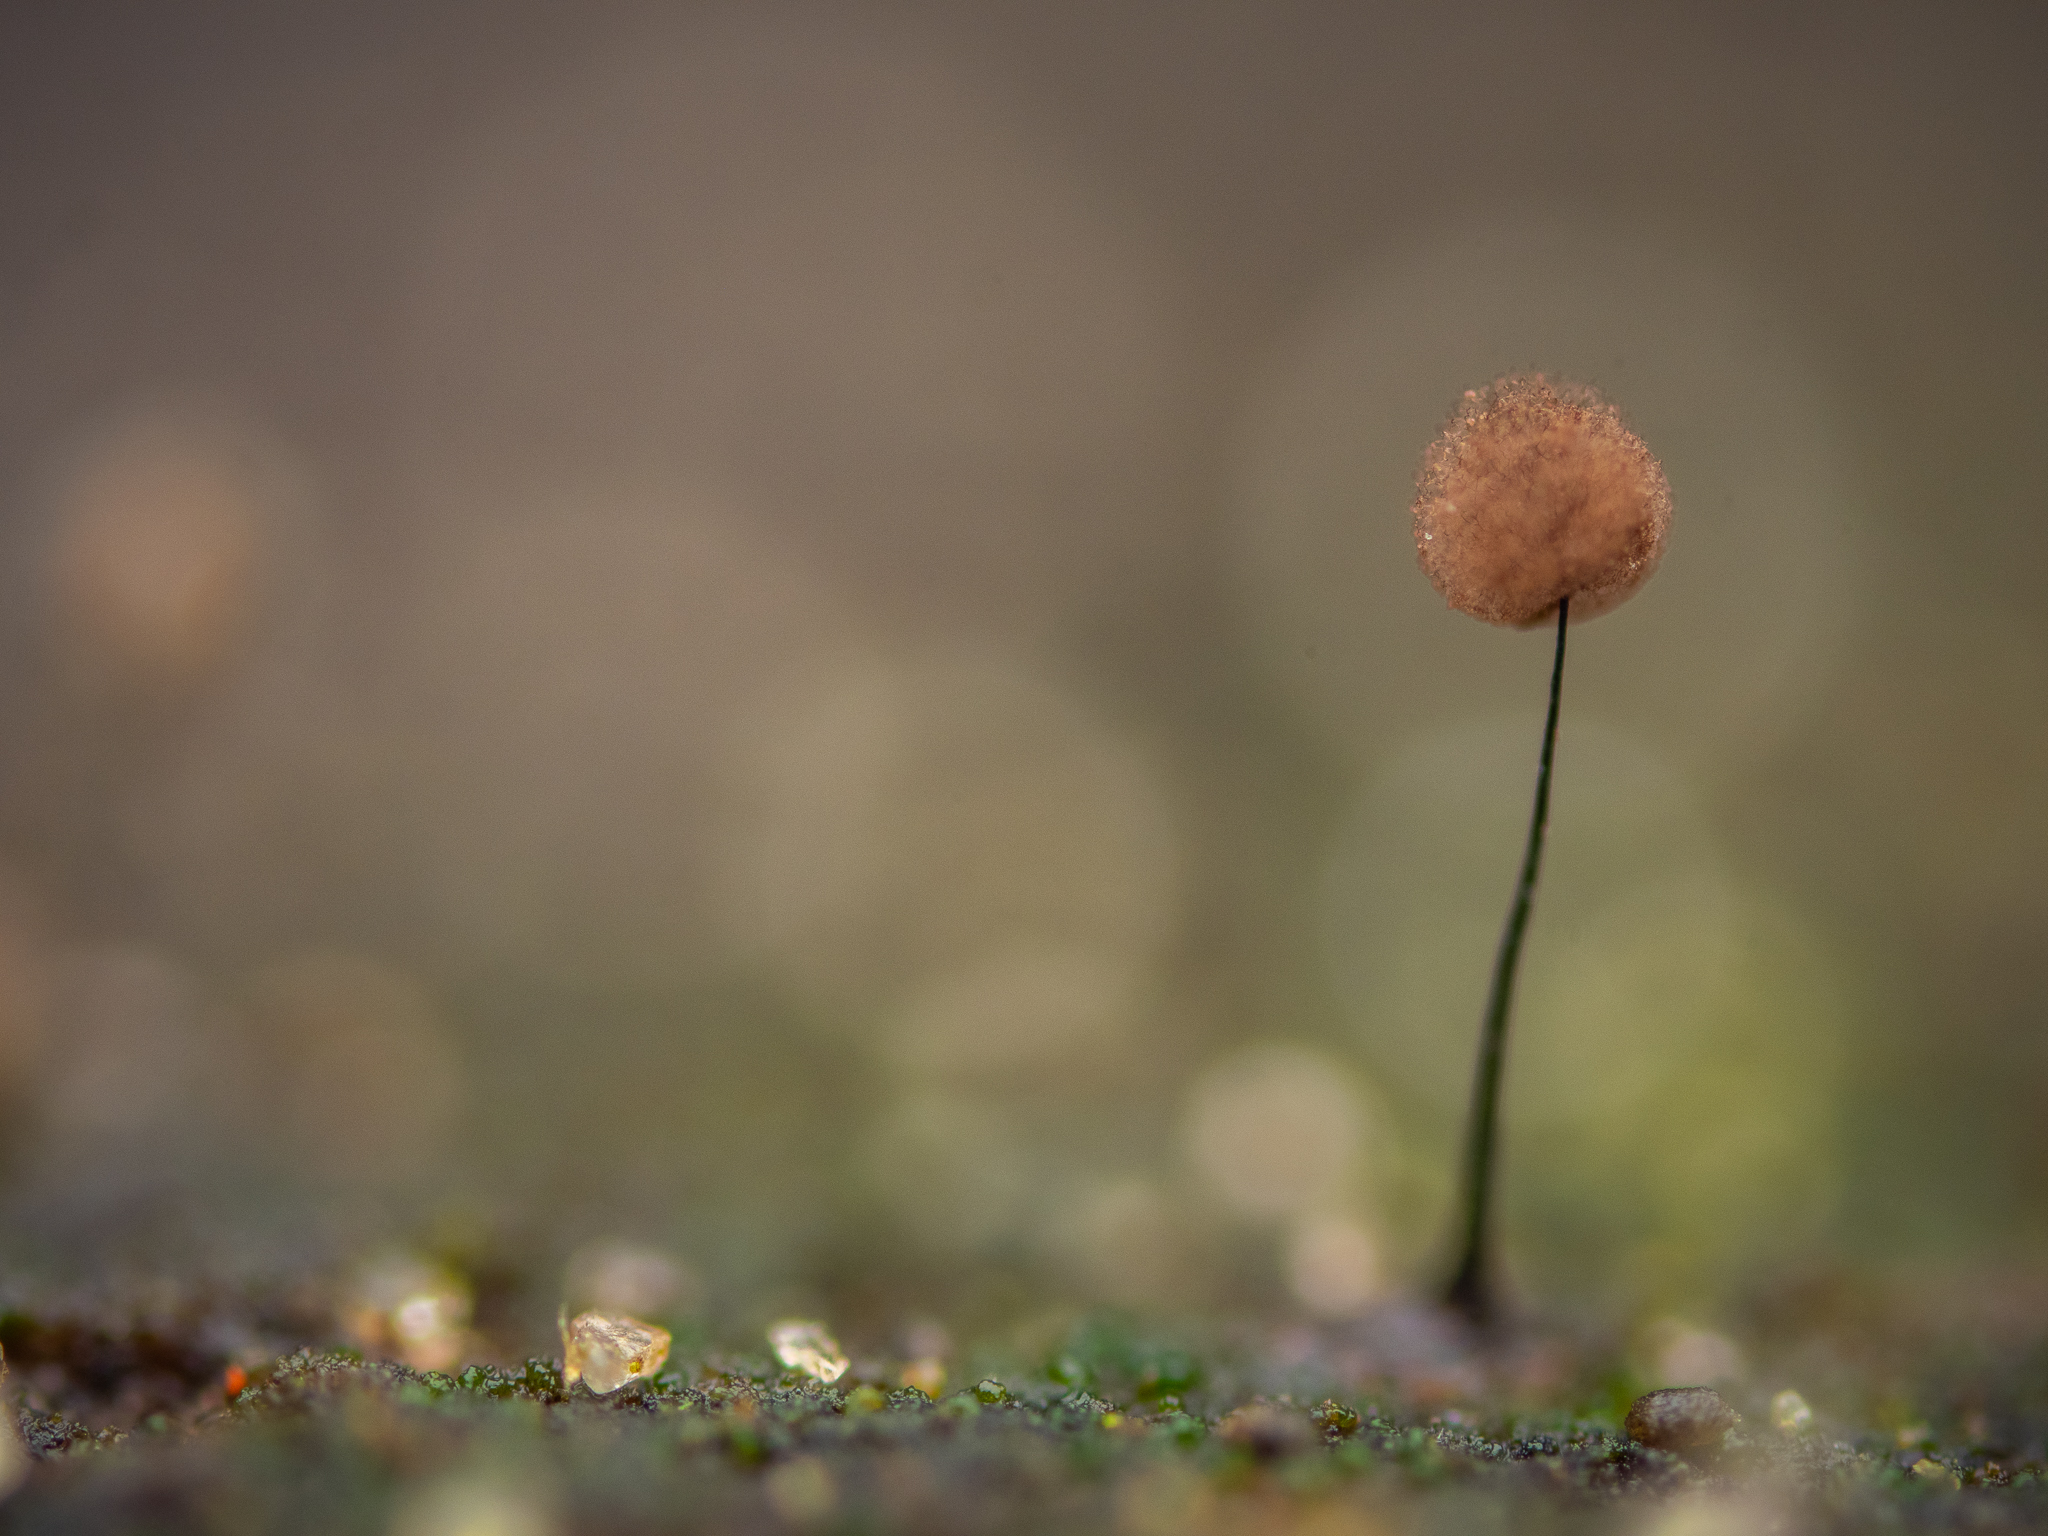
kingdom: Protozoa
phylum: Mycetozoa
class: Myxomycetes
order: Stemonitidales
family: Stemonitidaceae
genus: Comatricha
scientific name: Comatricha nigra
